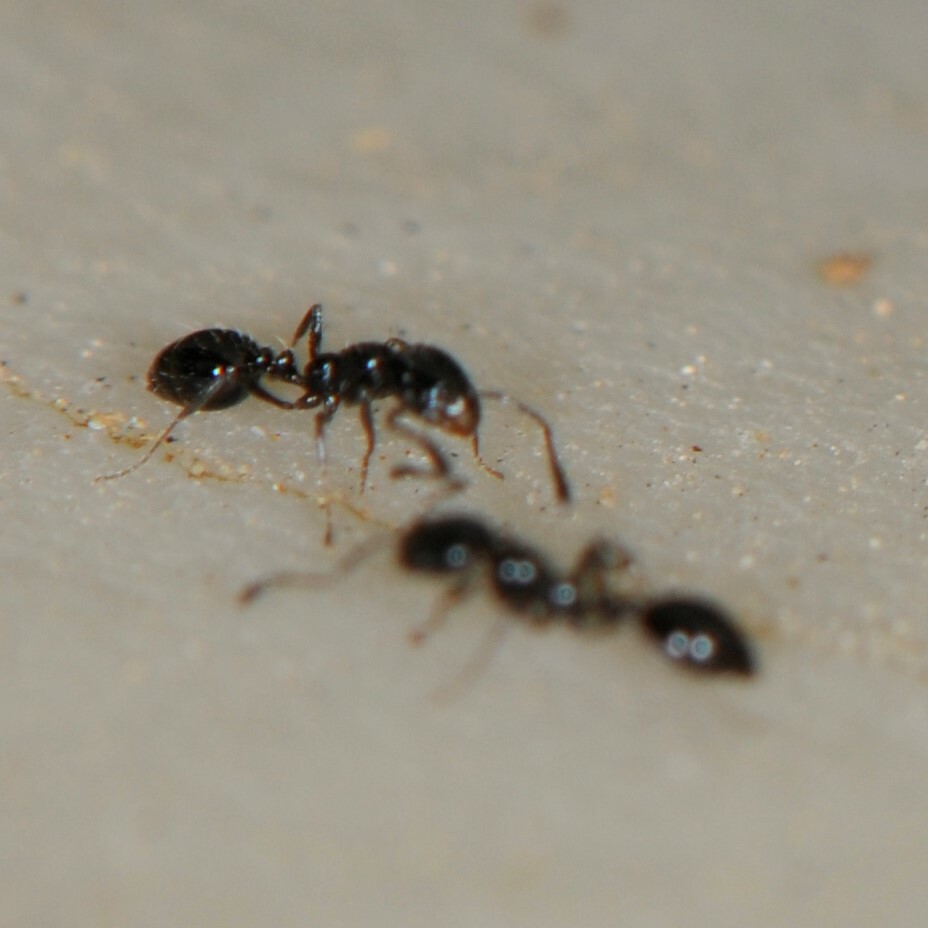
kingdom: Animalia
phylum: Arthropoda
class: Insecta
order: Hymenoptera
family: Formicidae
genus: Monomorium
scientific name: Monomorium
